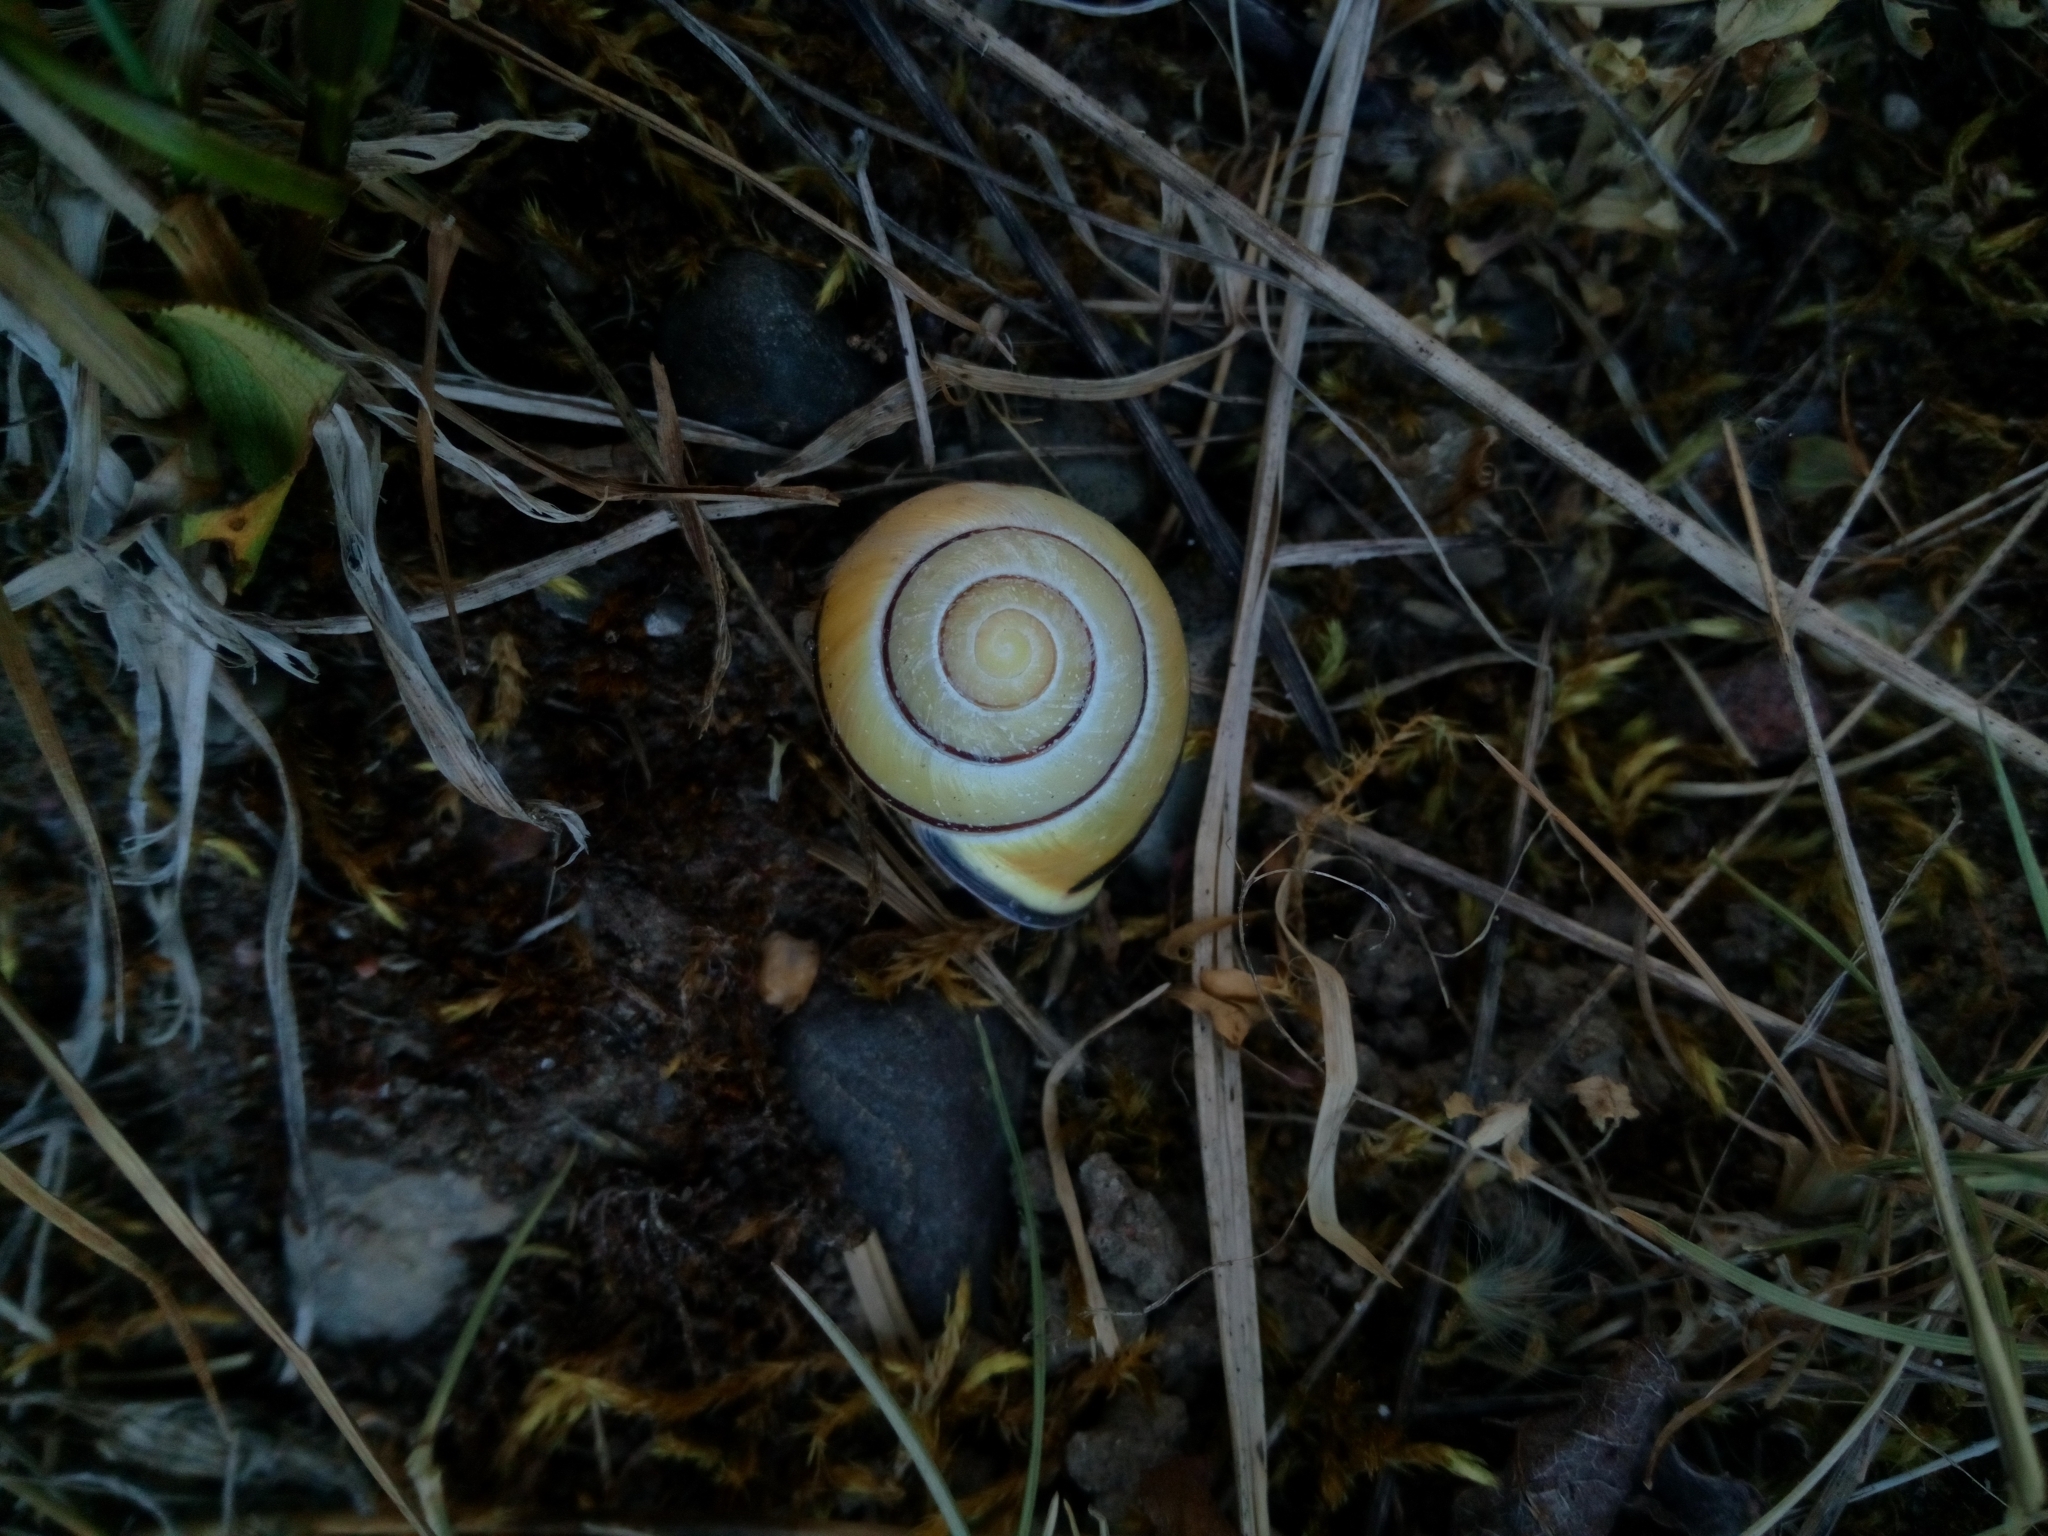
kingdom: Animalia
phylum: Mollusca
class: Gastropoda
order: Stylommatophora
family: Helicidae
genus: Cepaea
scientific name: Cepaea nemoralis
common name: Grovesnail
